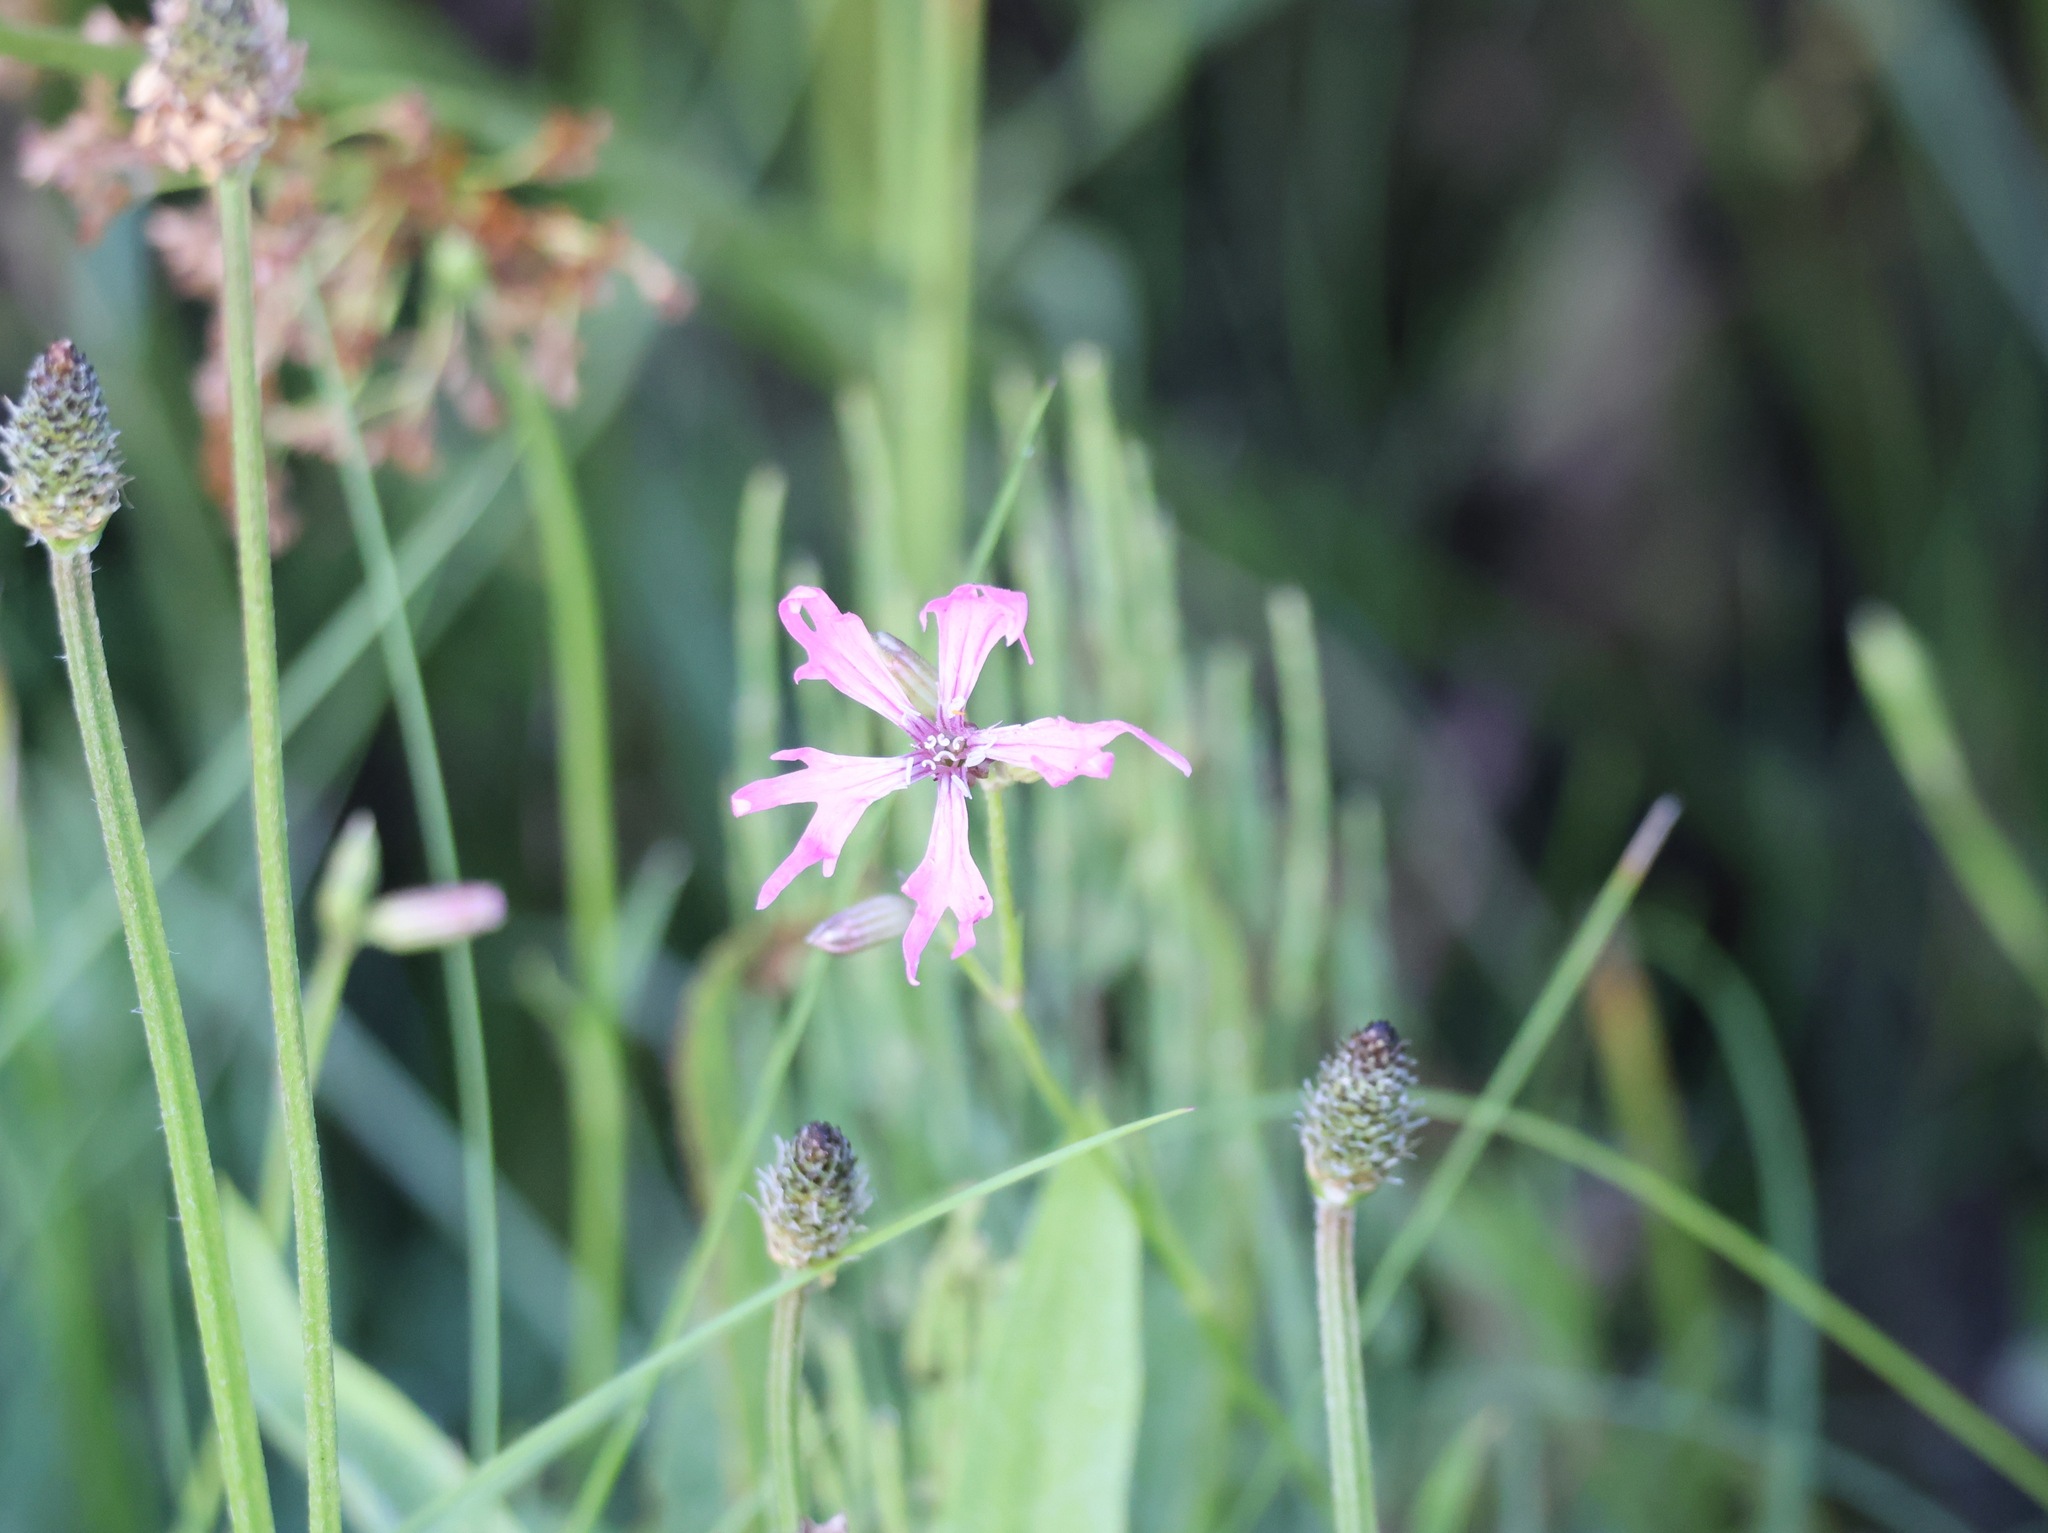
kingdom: Plantae
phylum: Tracheophyta
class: Magnoliopsida
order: Caryophyllales
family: Caryophyllaceae
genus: Silene
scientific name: Silene flos-cuculi
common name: Ragged-robin
